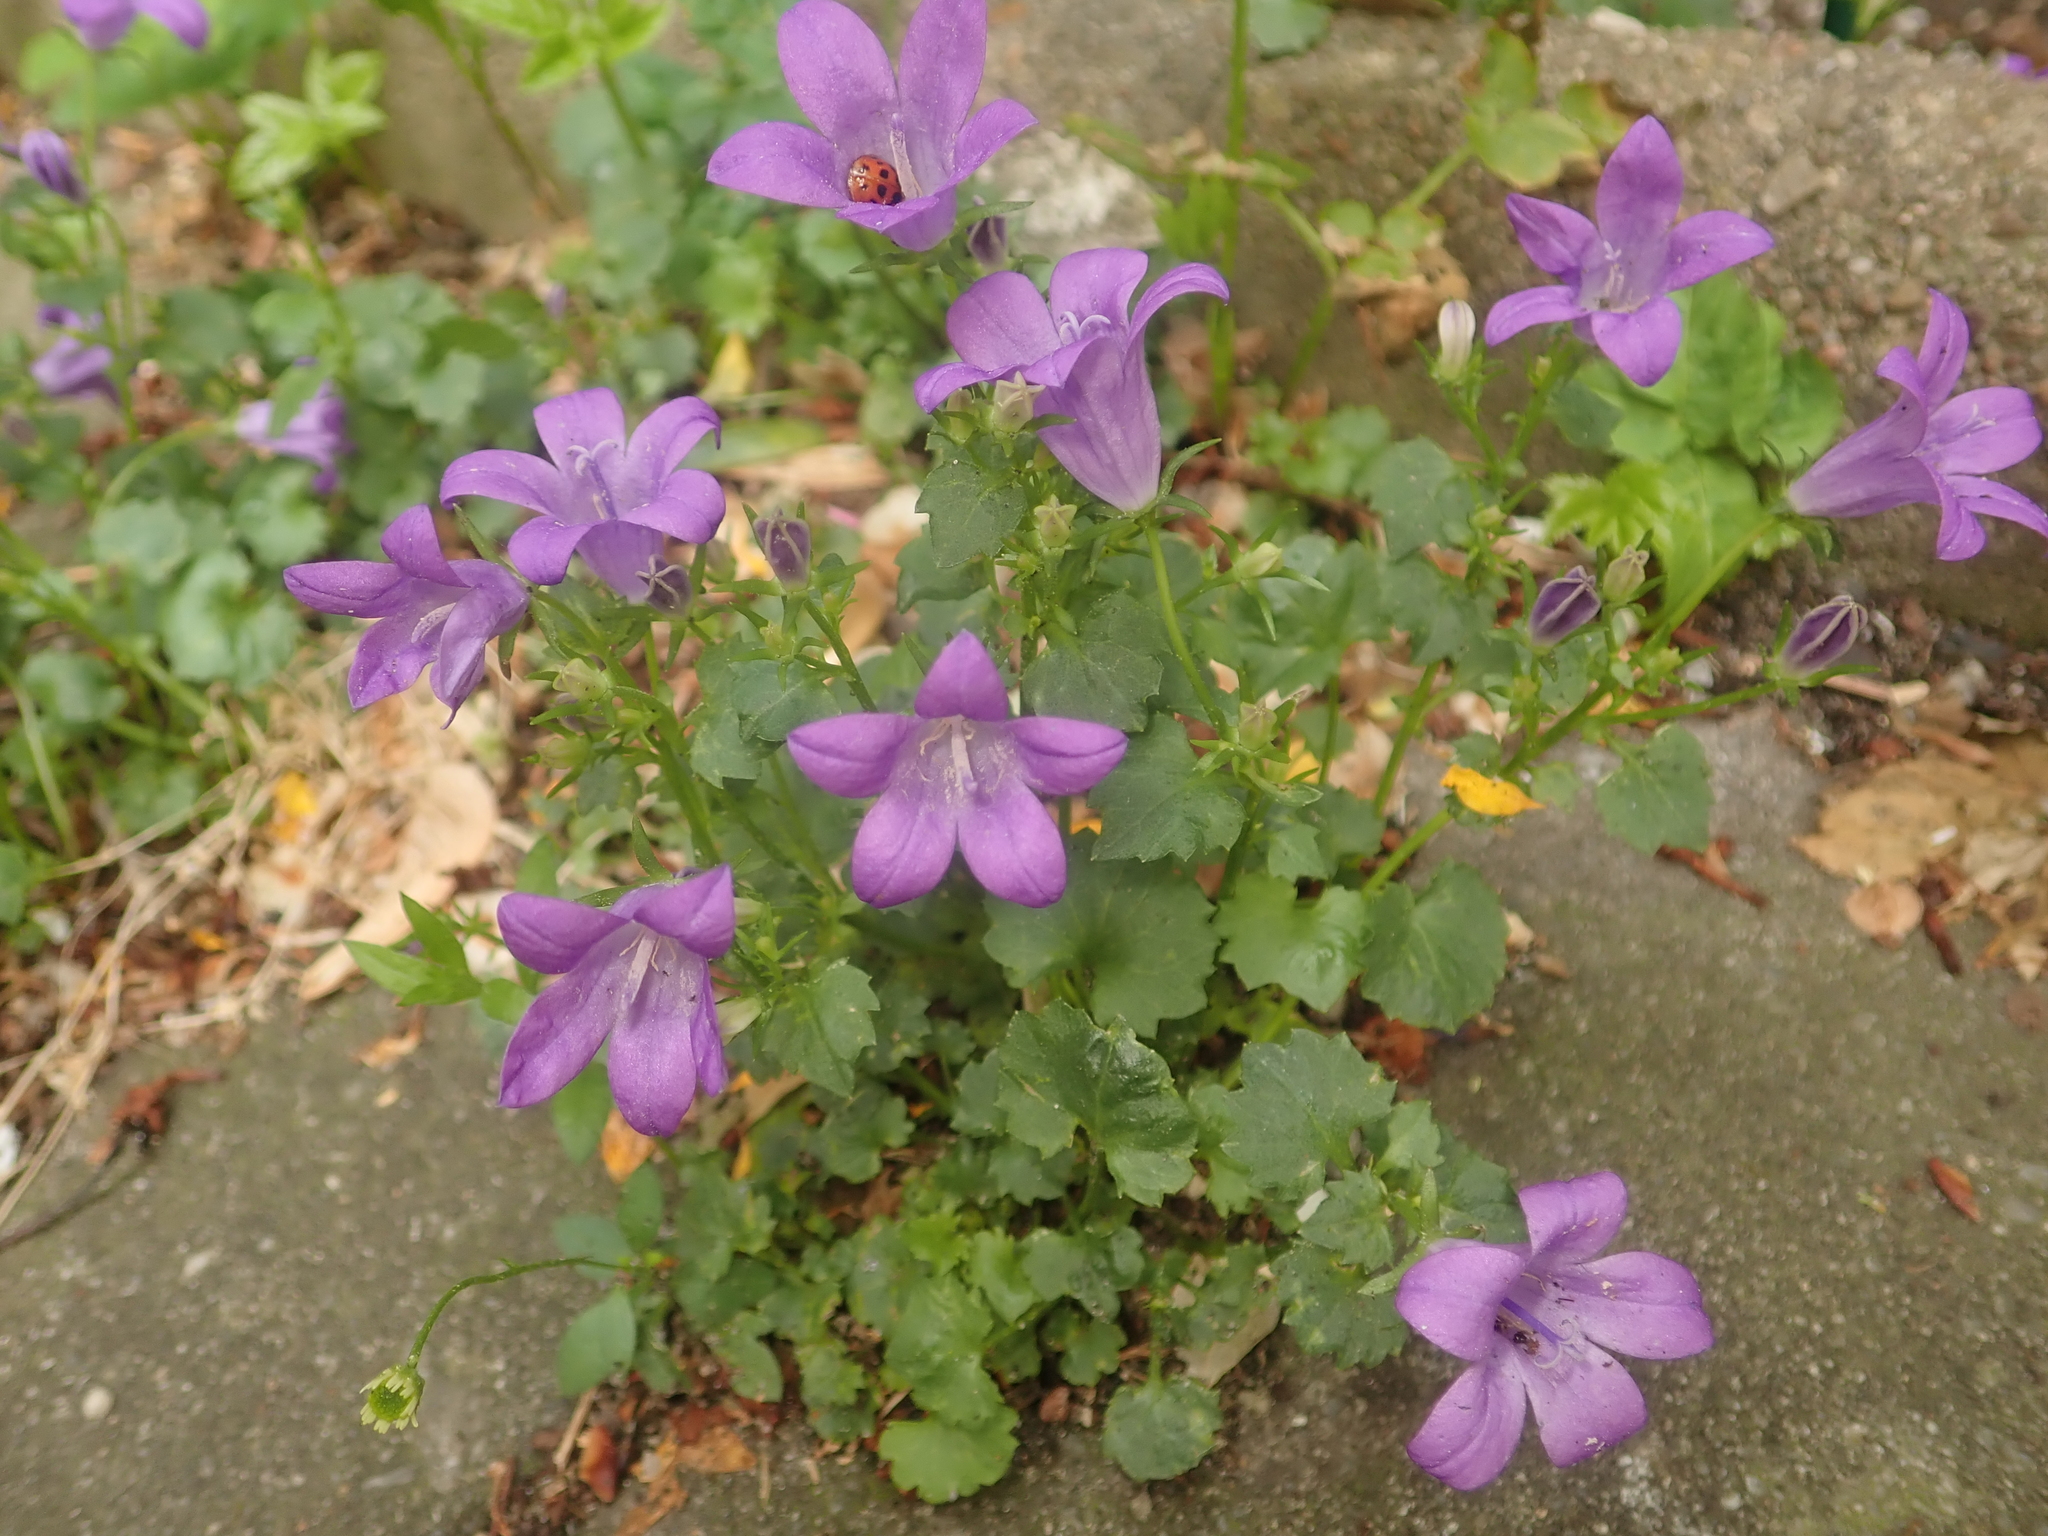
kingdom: Plantae
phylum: Tracheophyta
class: Magnoliopsida
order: Asterales
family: Campanulaceae
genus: Campanula
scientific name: Campanula poscharskyana
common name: Trailing bellflower
